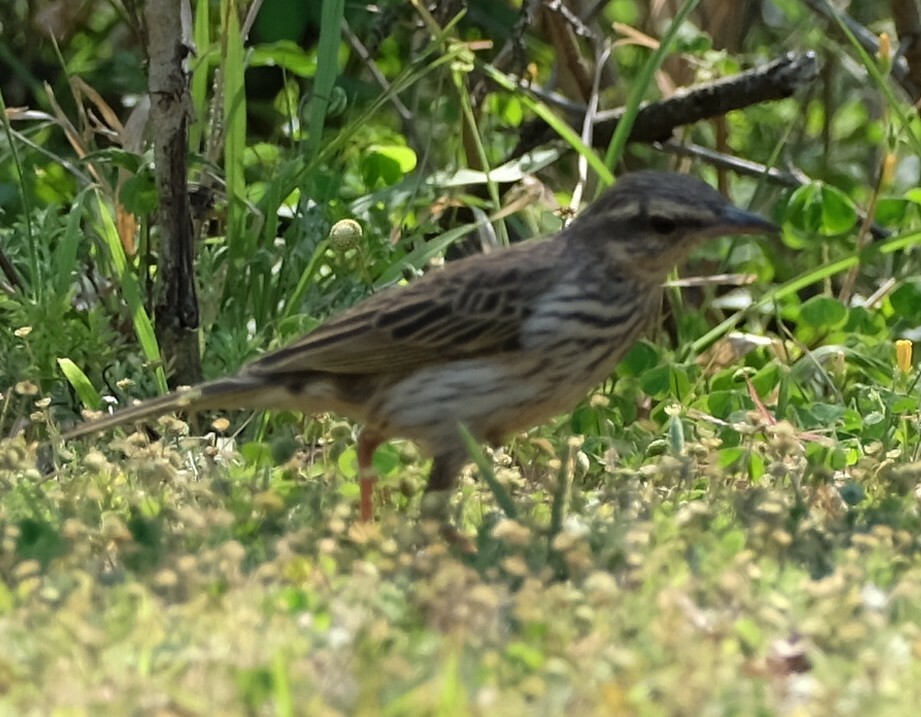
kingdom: Animalia
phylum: Chordata
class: Aves
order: Passeriformes
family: Motacillidae
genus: Anthus
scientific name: Anthus lineiventris
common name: Striped pipit
